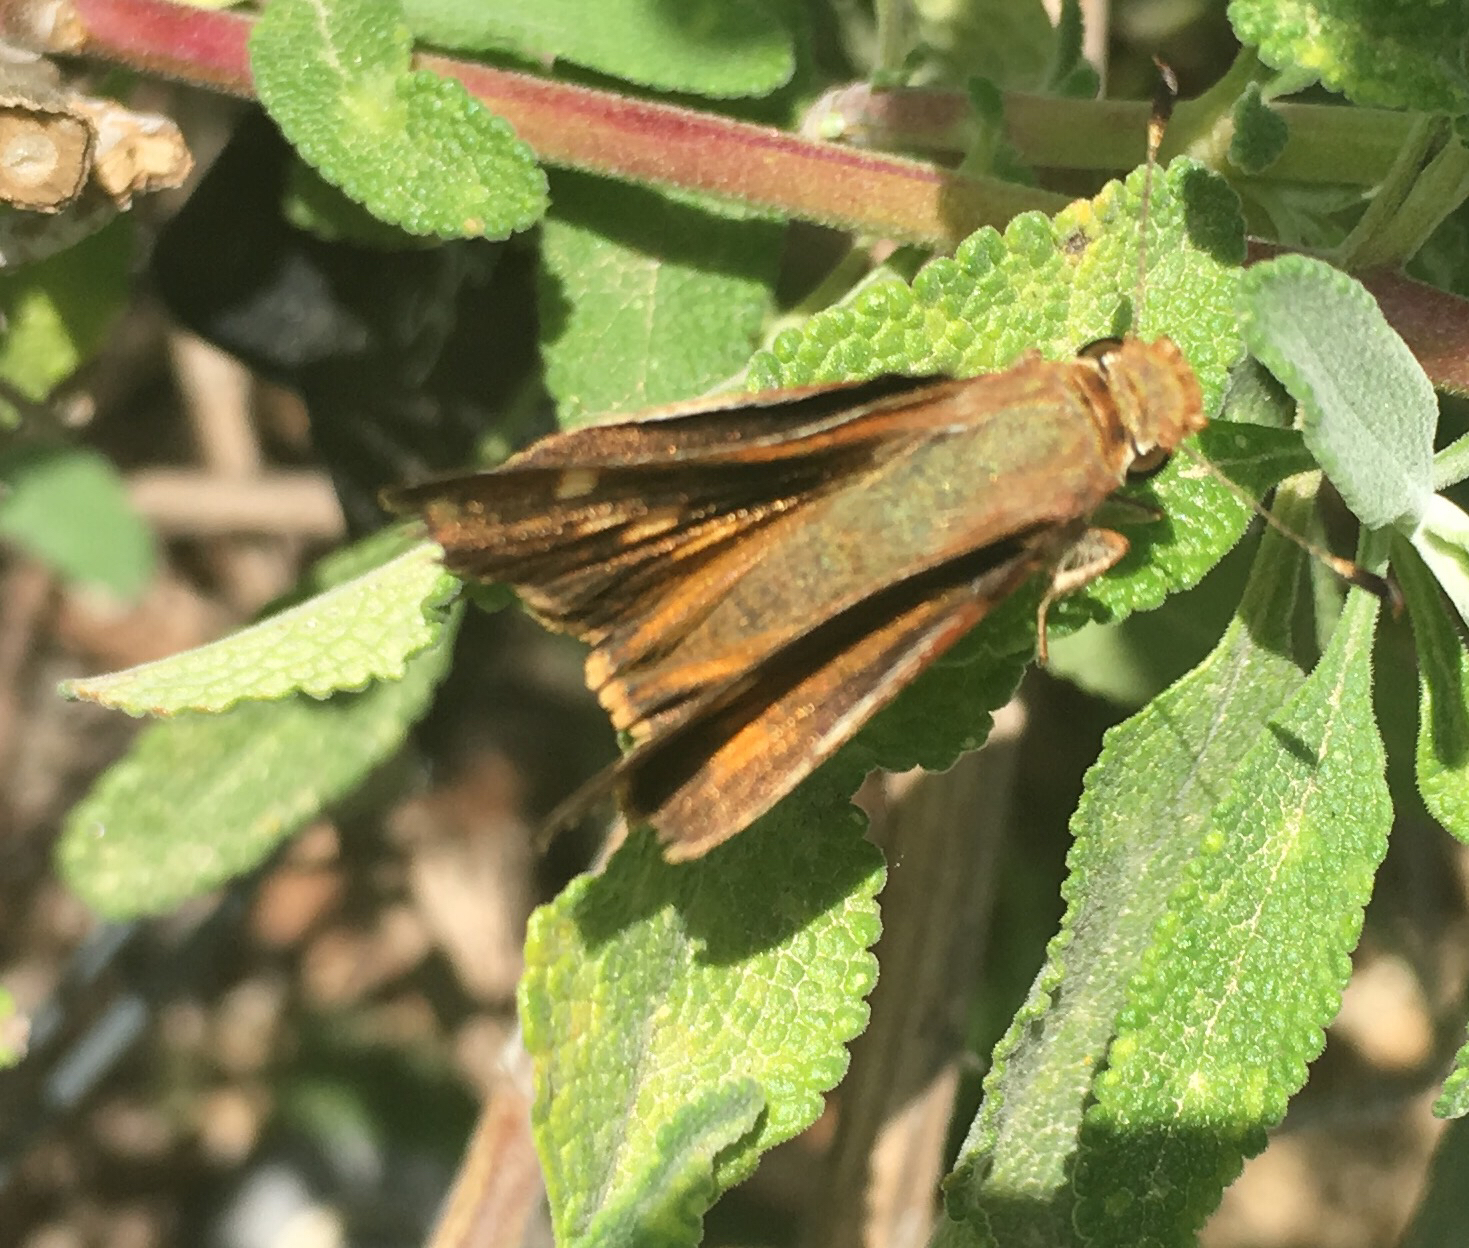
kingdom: Animalia
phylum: Arthropoda
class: Insecta
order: Lepidoptera
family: Hesperiidae
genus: Lon
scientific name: Lon melane
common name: Umber skipper
